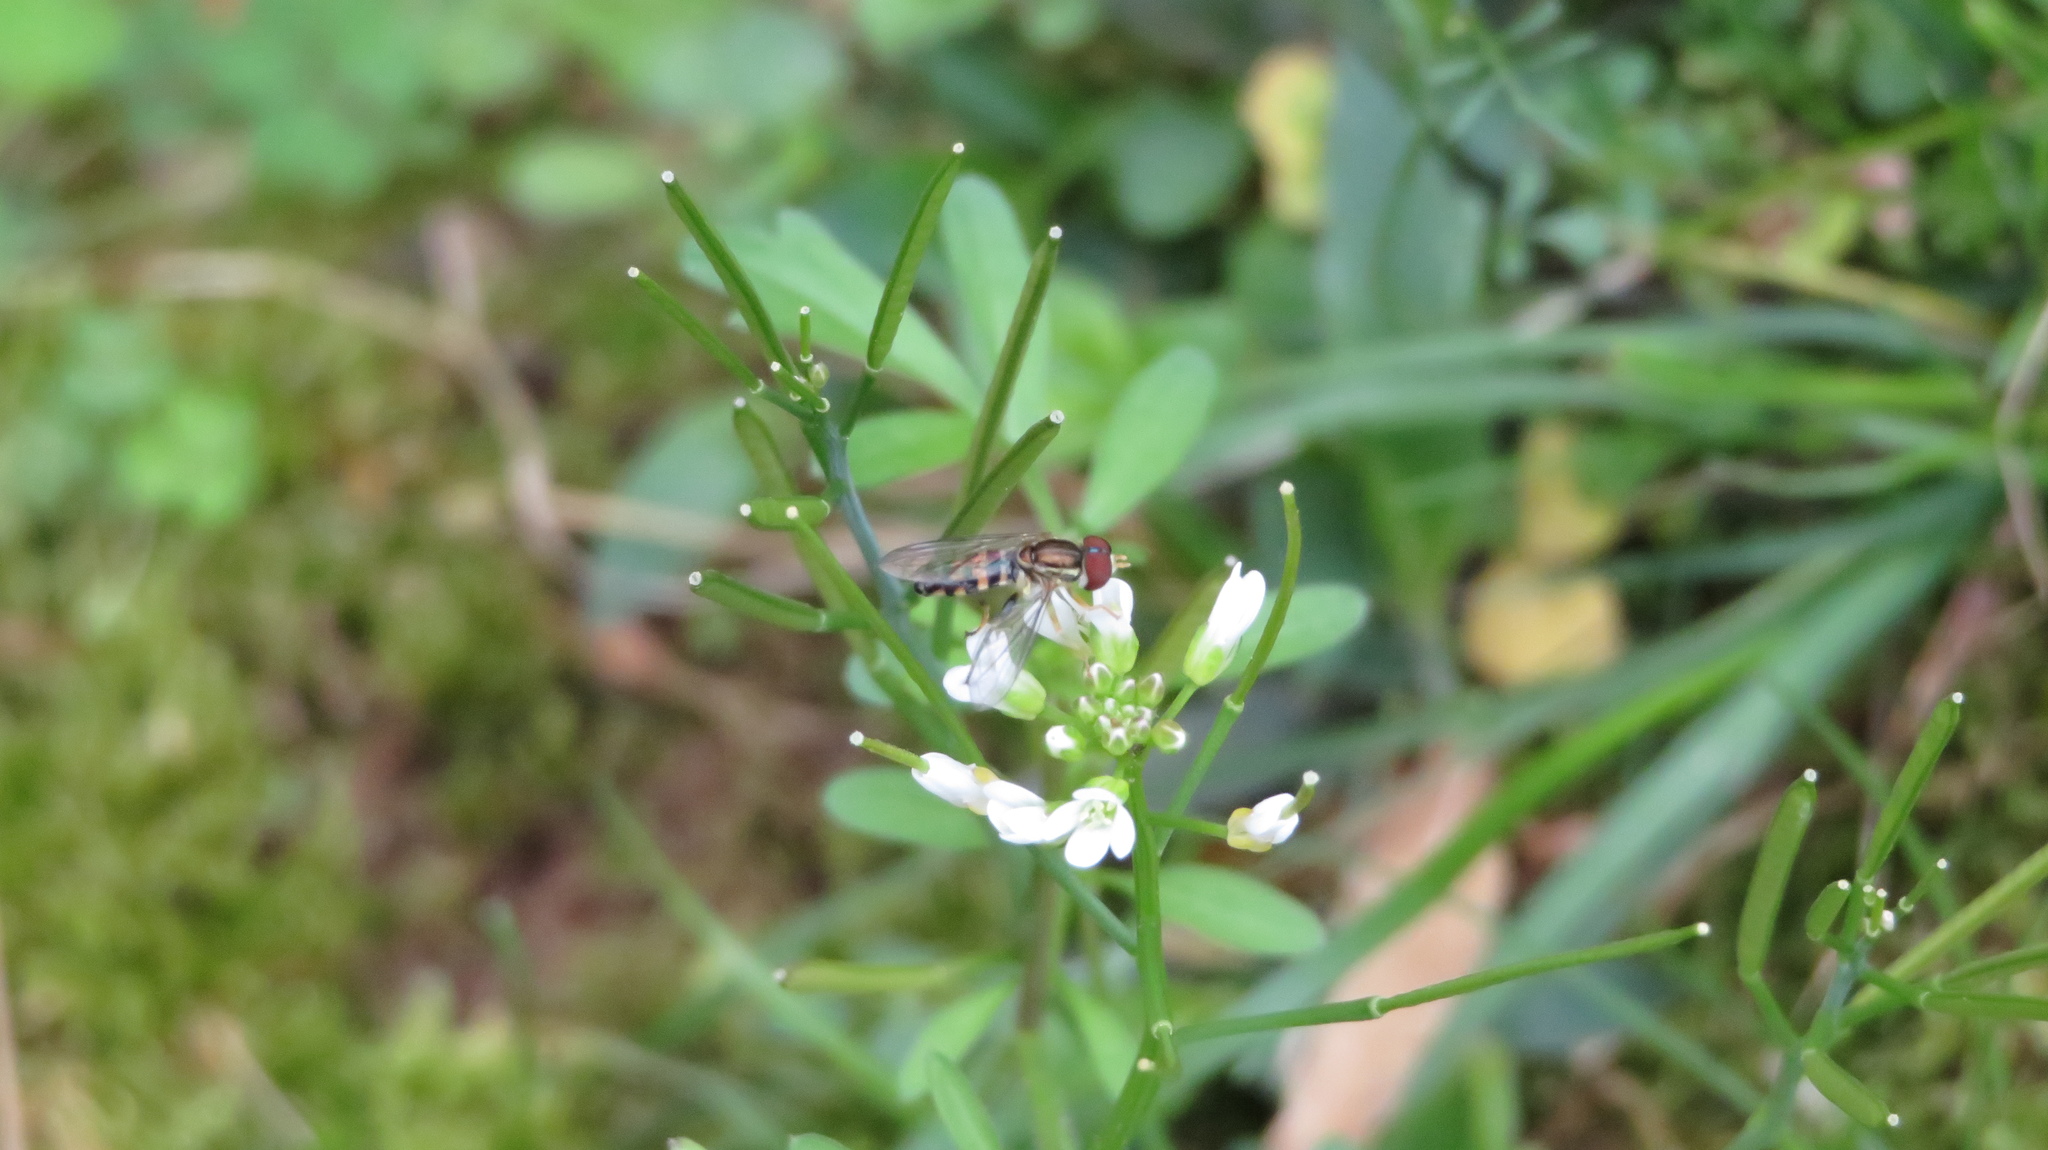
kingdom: Animalia
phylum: Arthropoda
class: Insecta
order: Diptera
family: Syrphidae
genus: Toxomerus
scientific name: Toxomerus geminatus
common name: Eastern calligrapher
